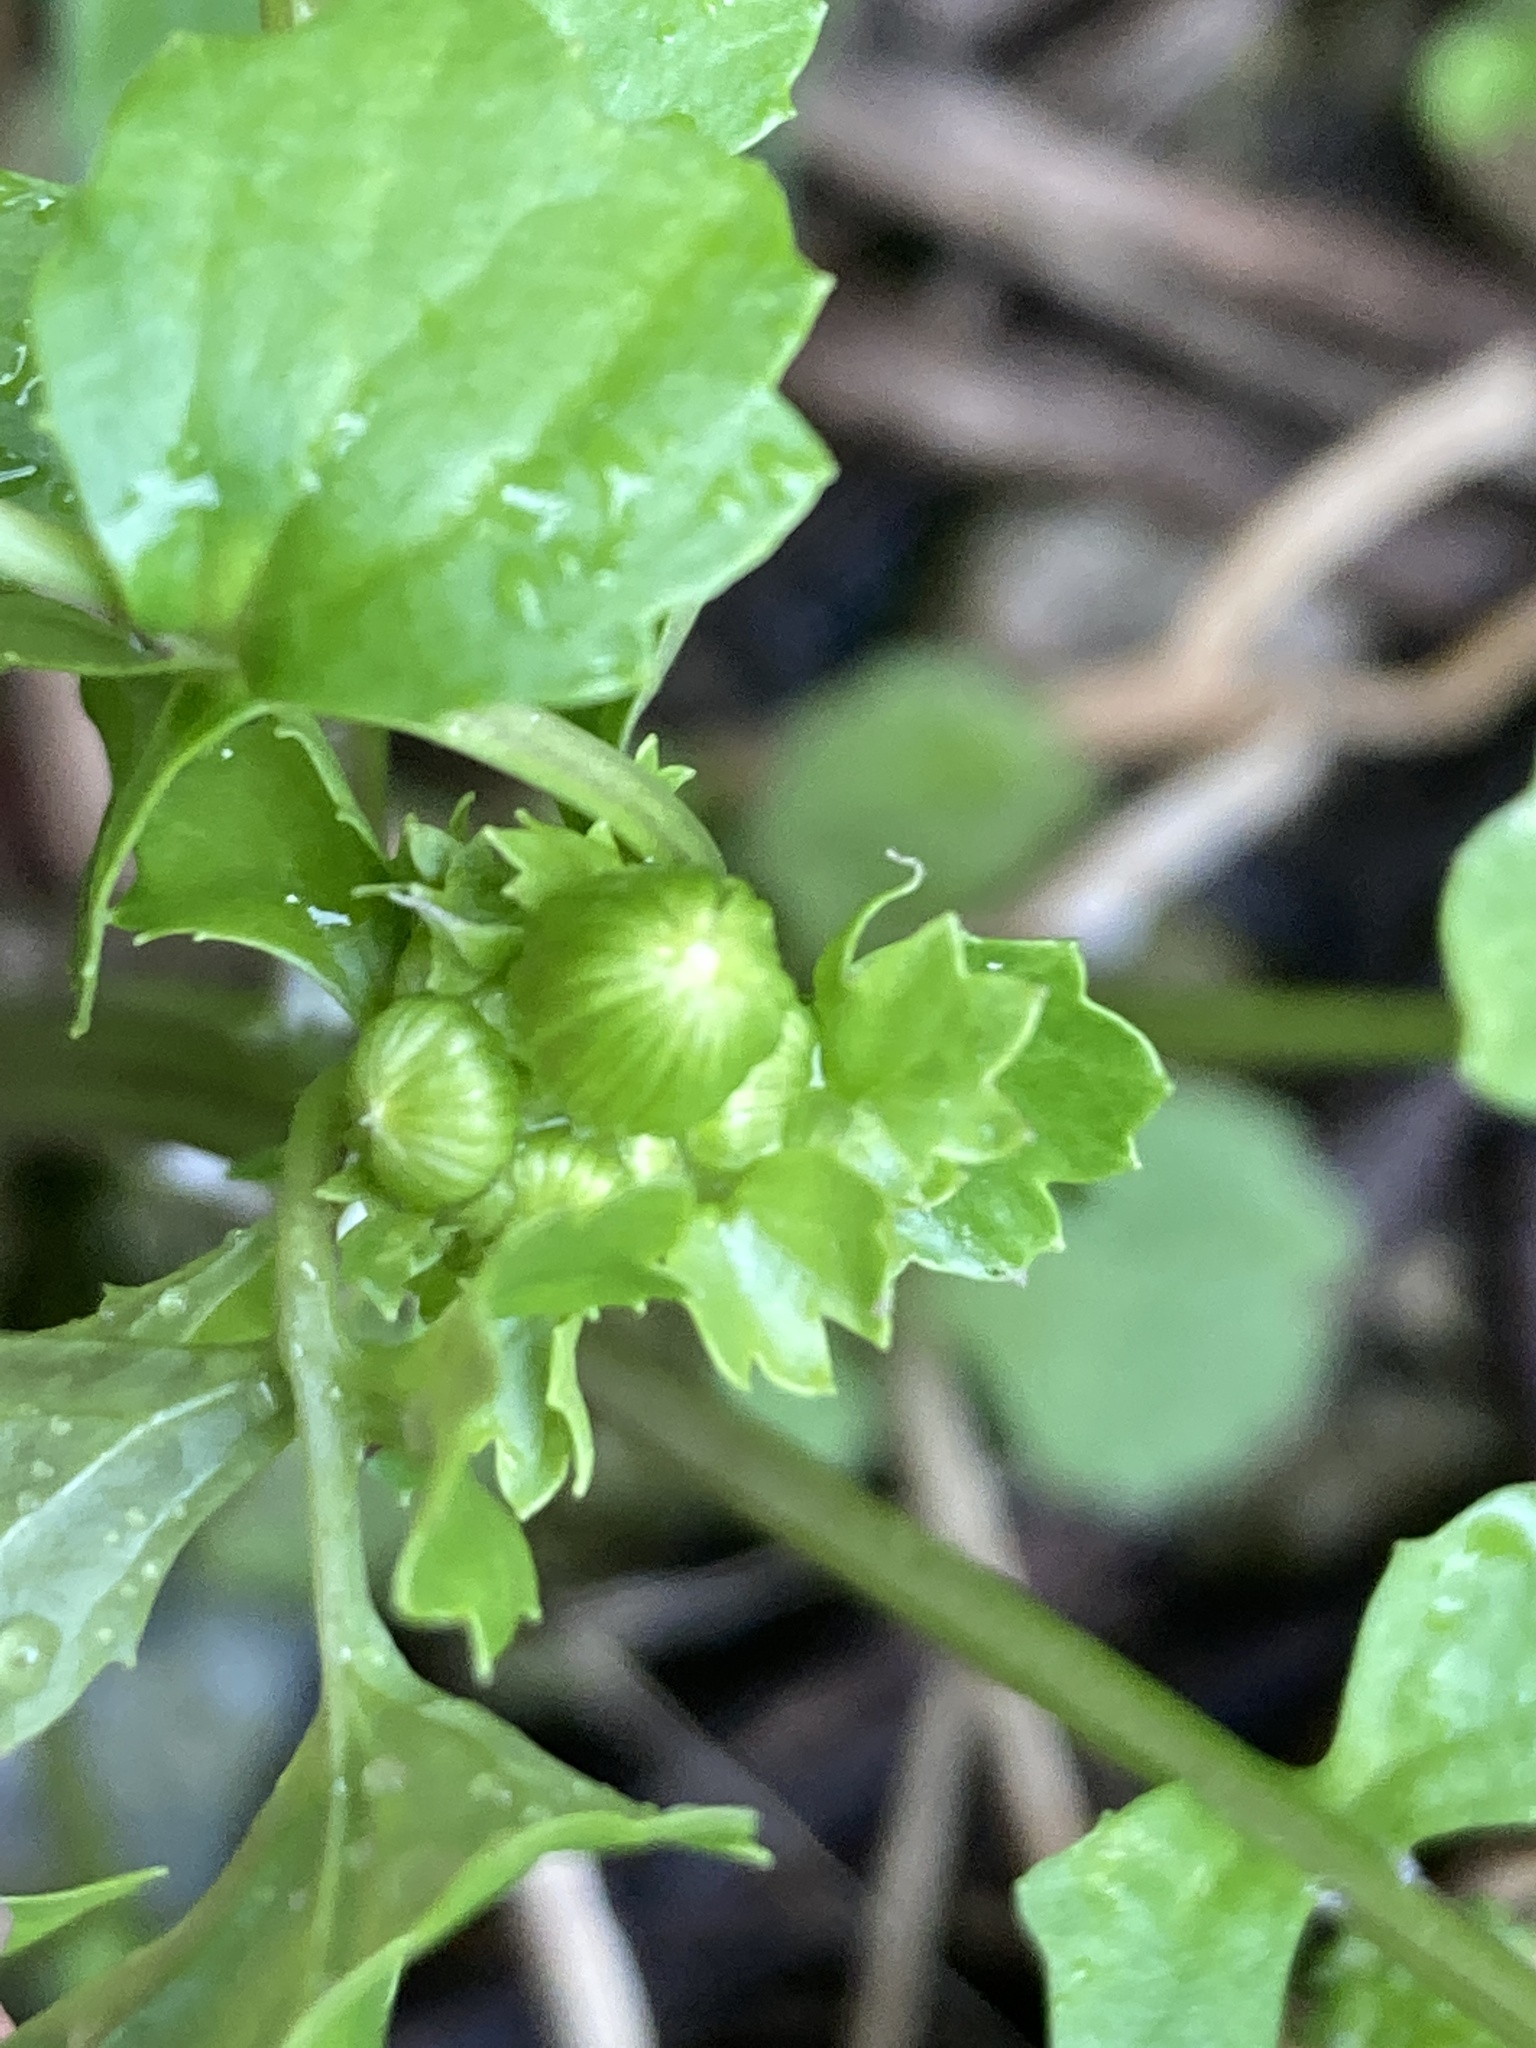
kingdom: Plantae
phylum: Tracheophyta
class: Magnoliopsida
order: Asterales
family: Asteraceae
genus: Packera
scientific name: Packera glabella
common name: Butterweed
